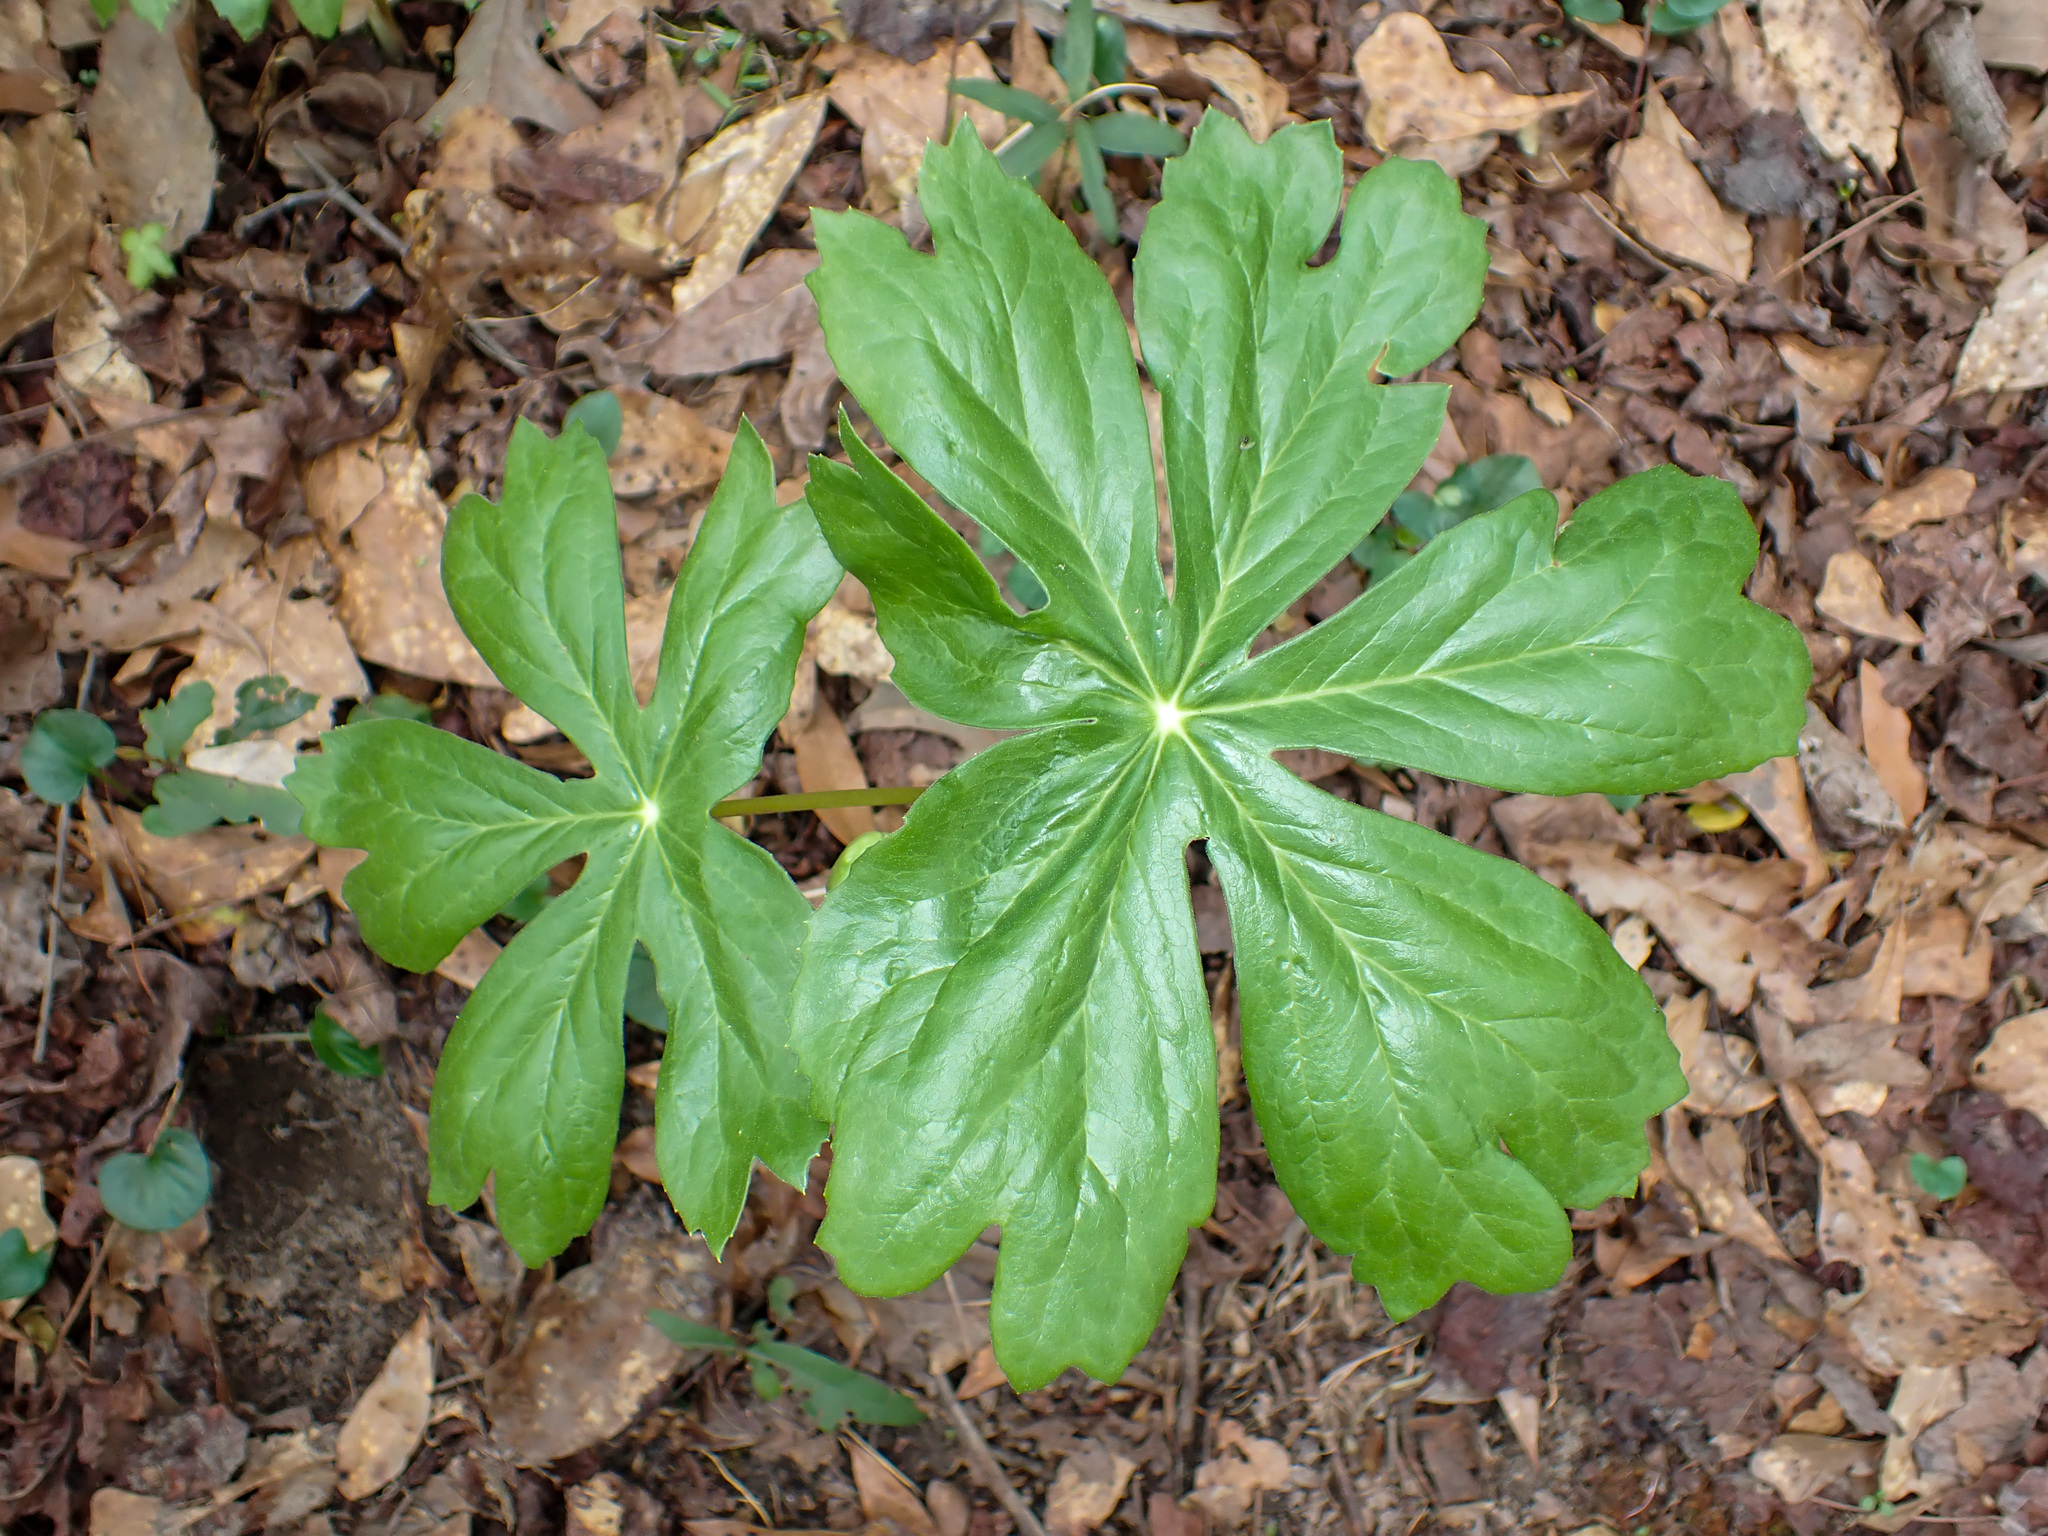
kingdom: Plantae
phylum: Tracheophyta
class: Magnoliopsida
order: Ranunculales
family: Berberidaceae
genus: Podophyllum
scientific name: Podophyllum peltatum
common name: Wild mandrake
